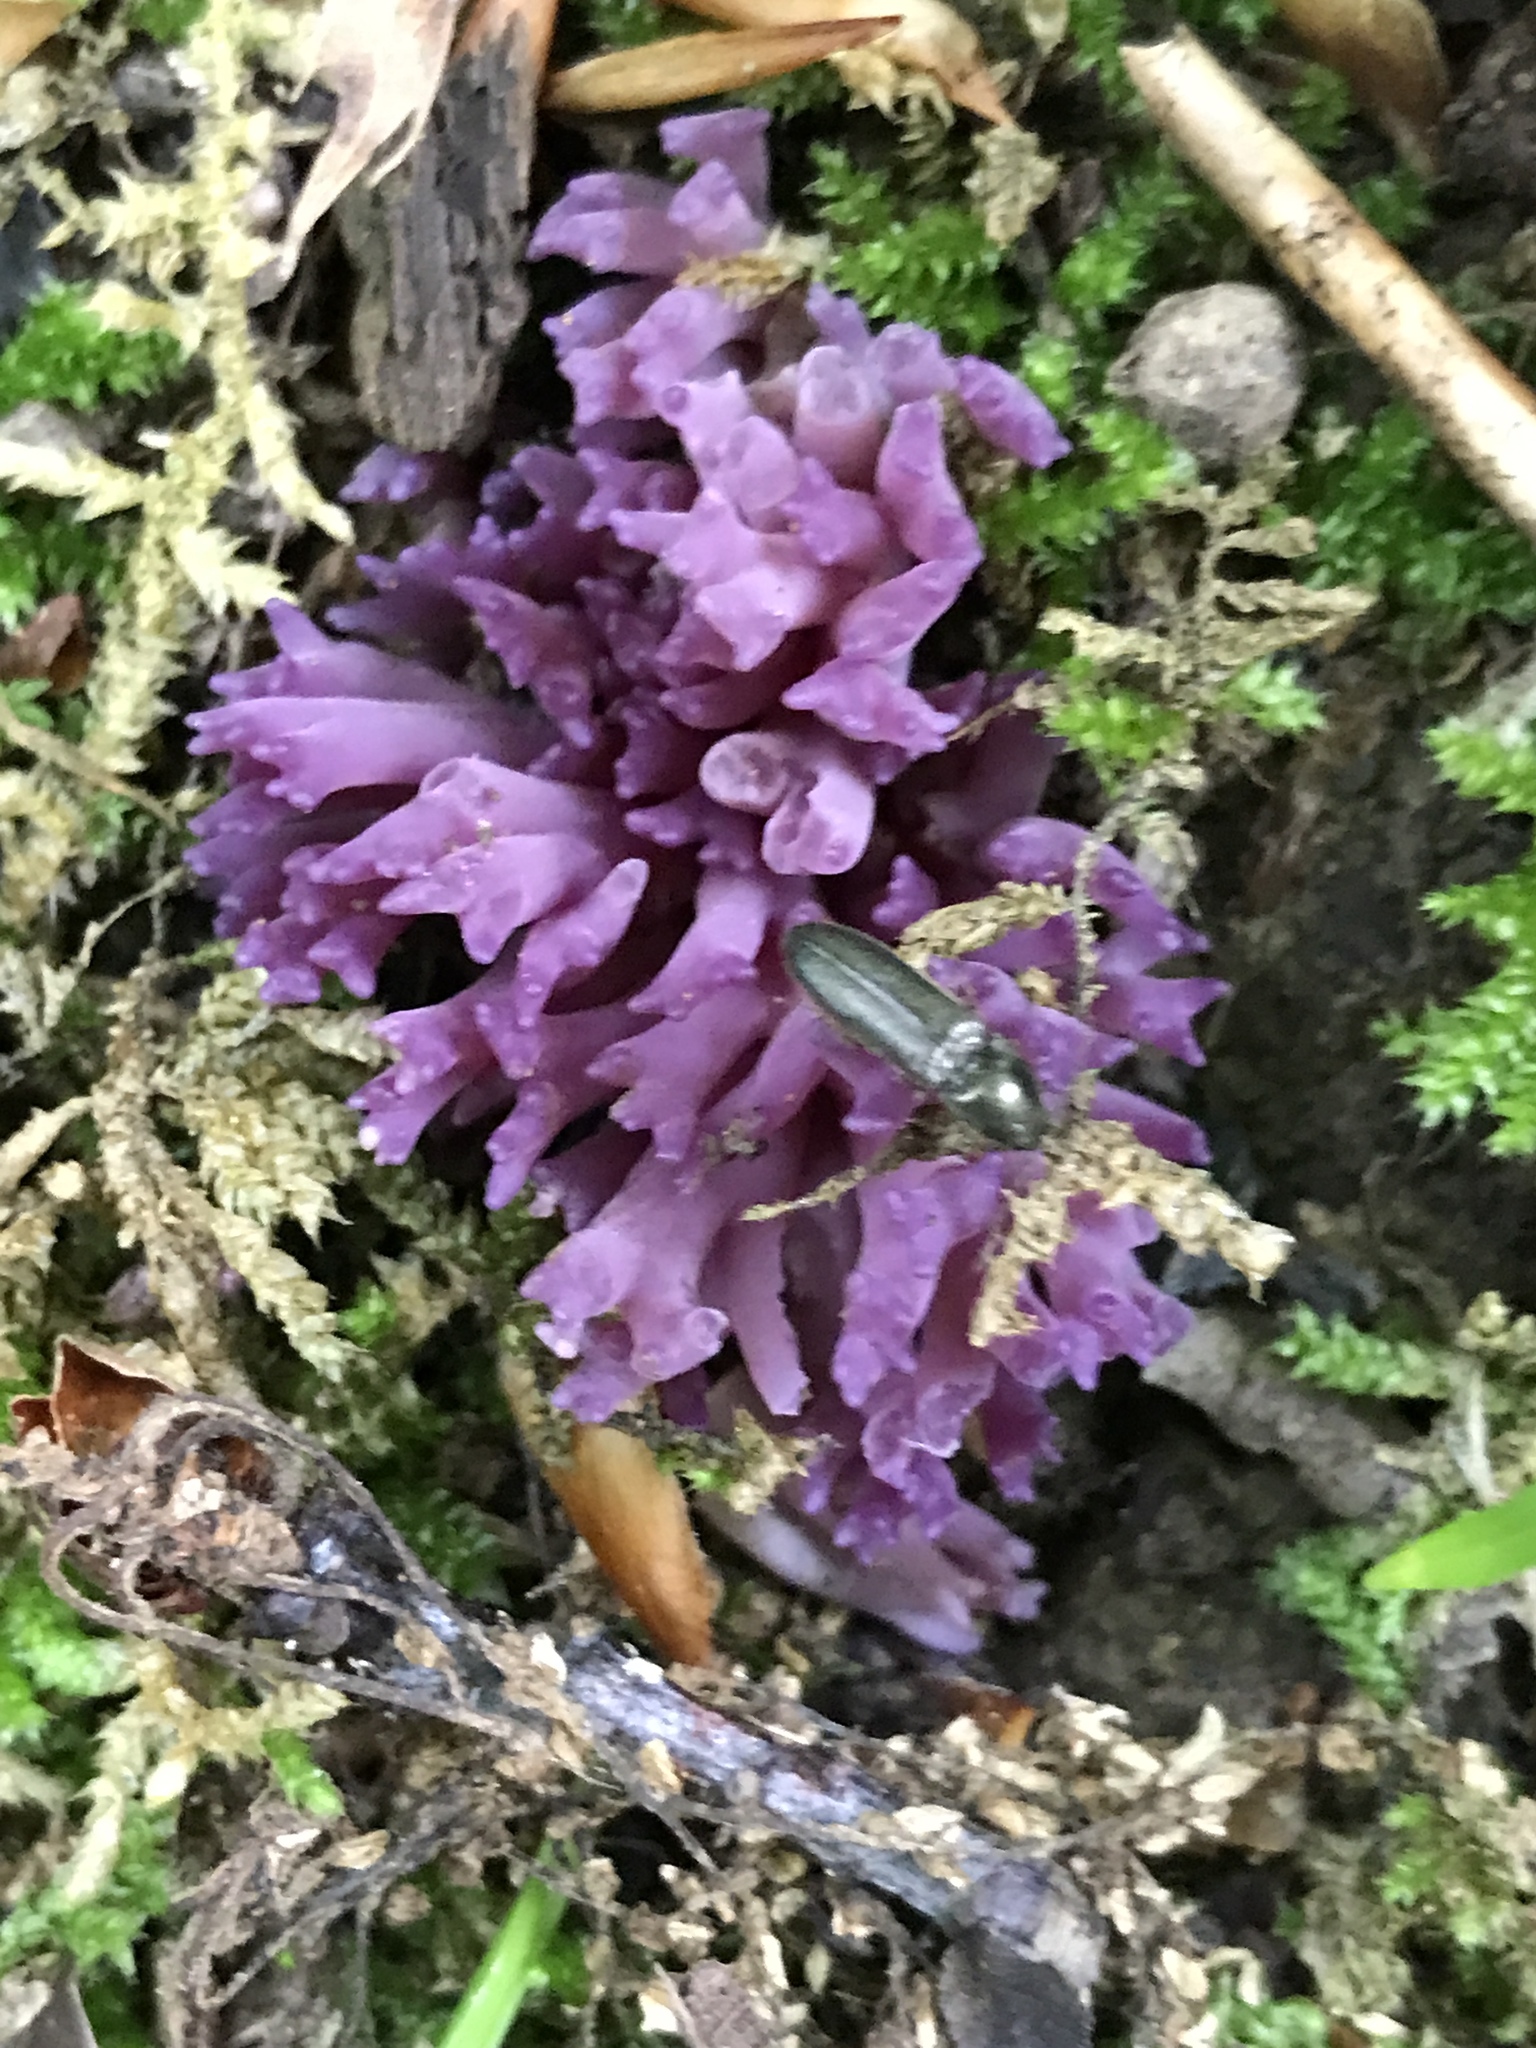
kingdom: Fungi
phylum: Basidiomycota
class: Agaricomycetes
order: Agaricales
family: Clavariaceae
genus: Clavaria
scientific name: Clavaria zollingeri
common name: Violet coral
